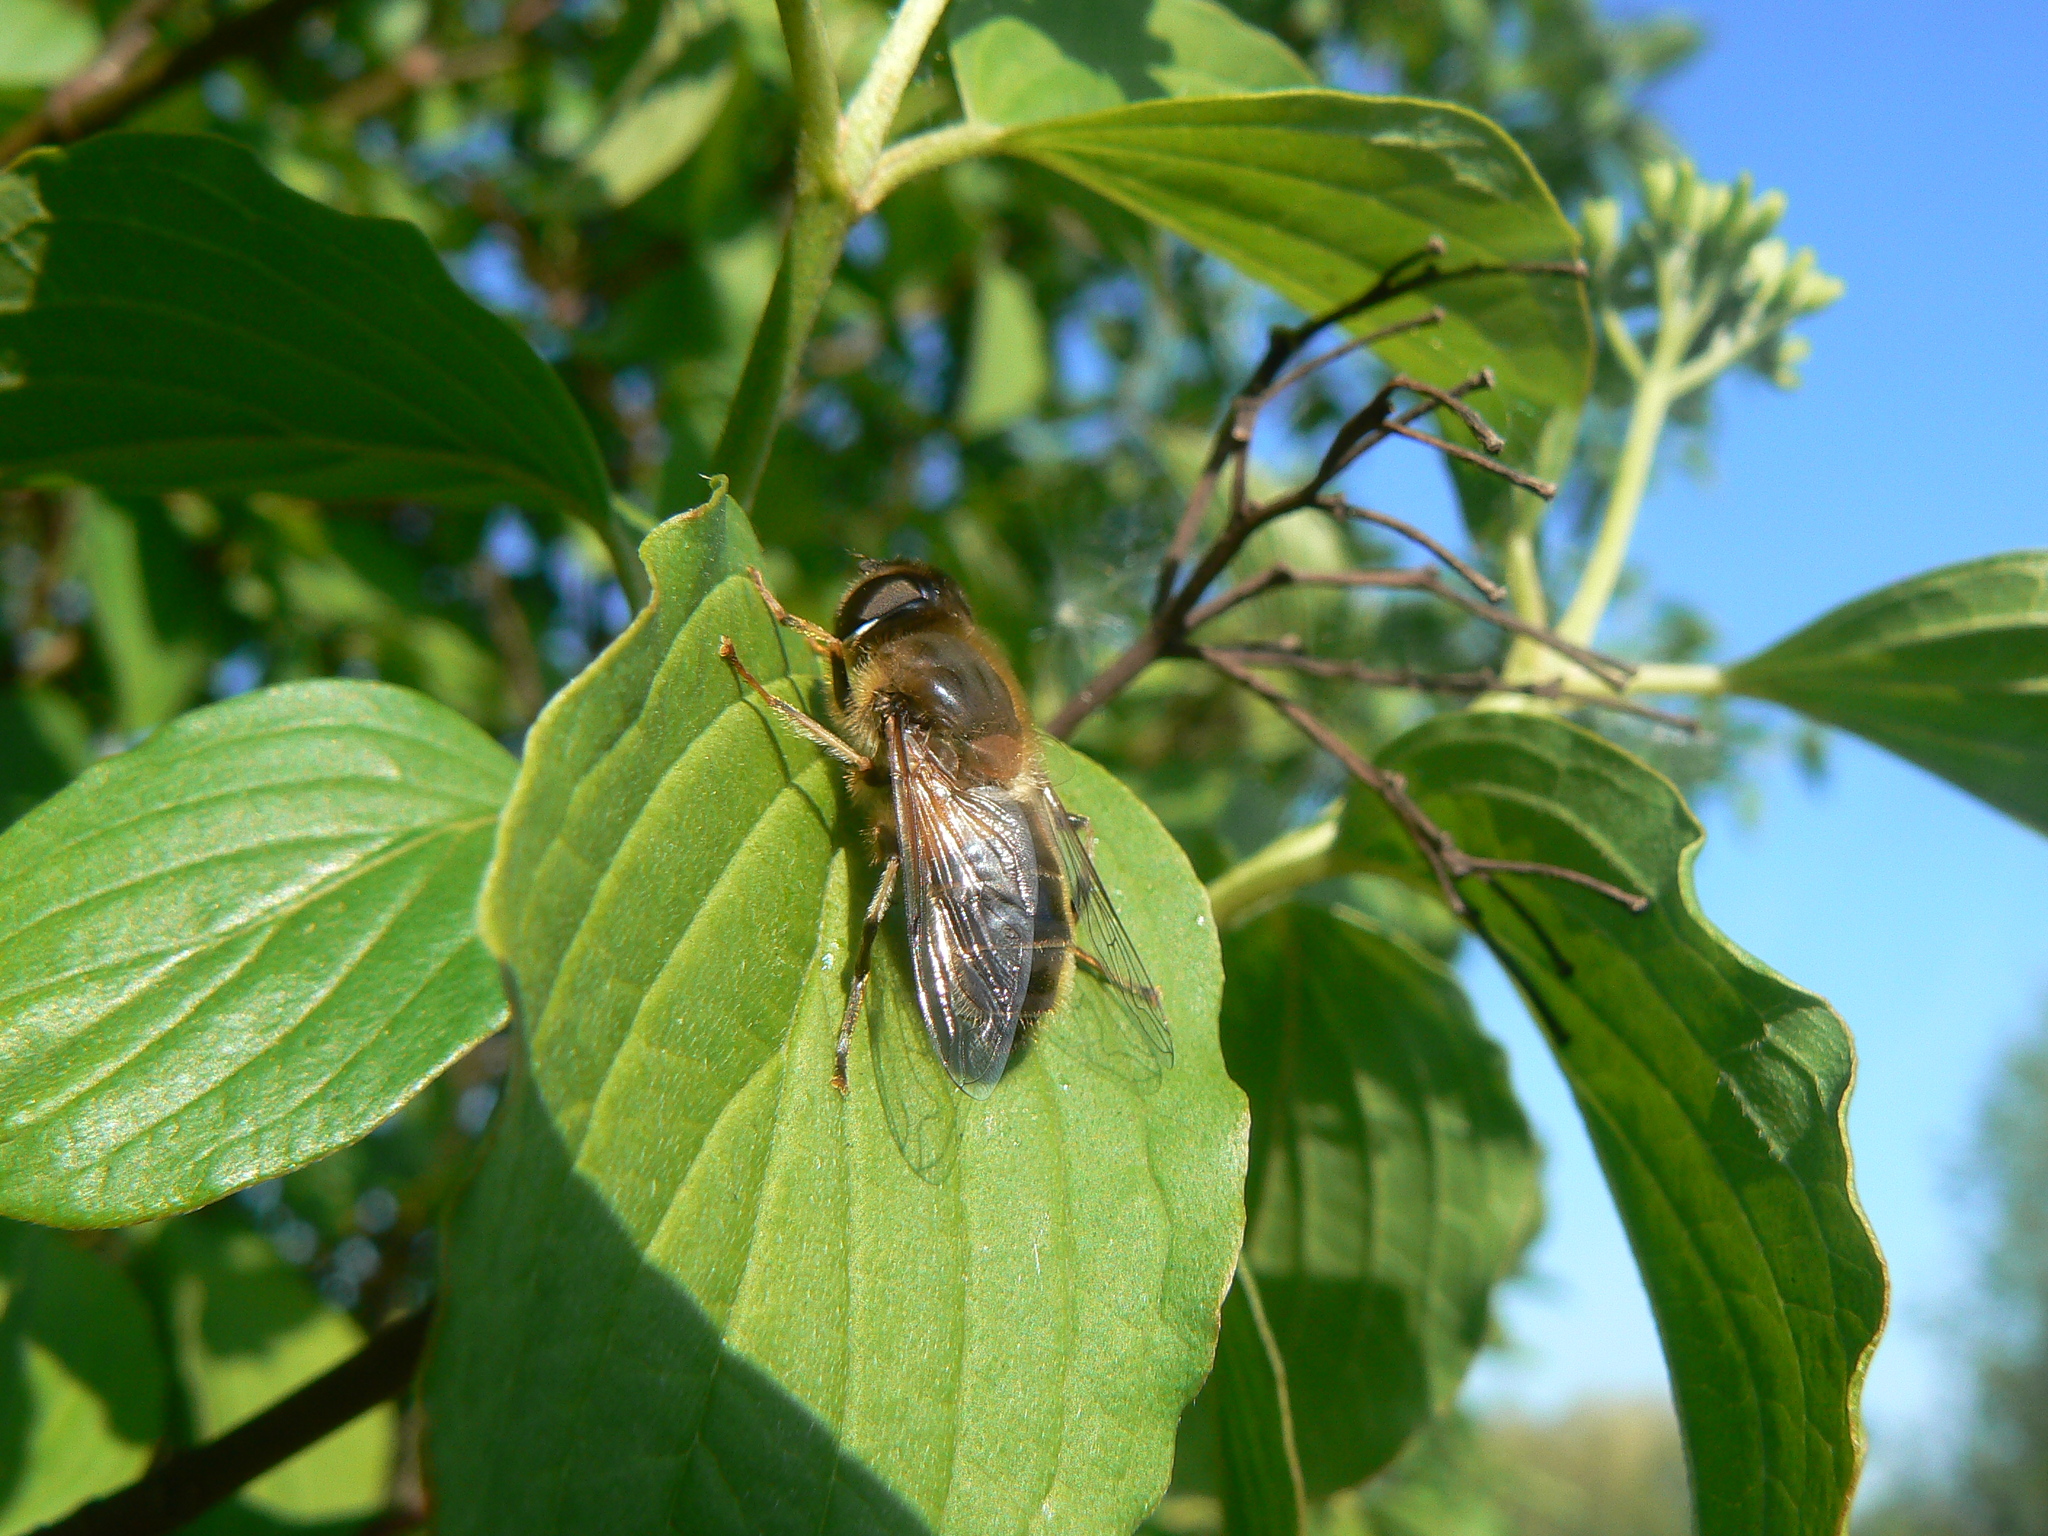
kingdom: Animalia
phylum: Arthropoda
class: Insecta
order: Diptera
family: Syrphidae
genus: Eristalis
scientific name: Eristalis pertinax
